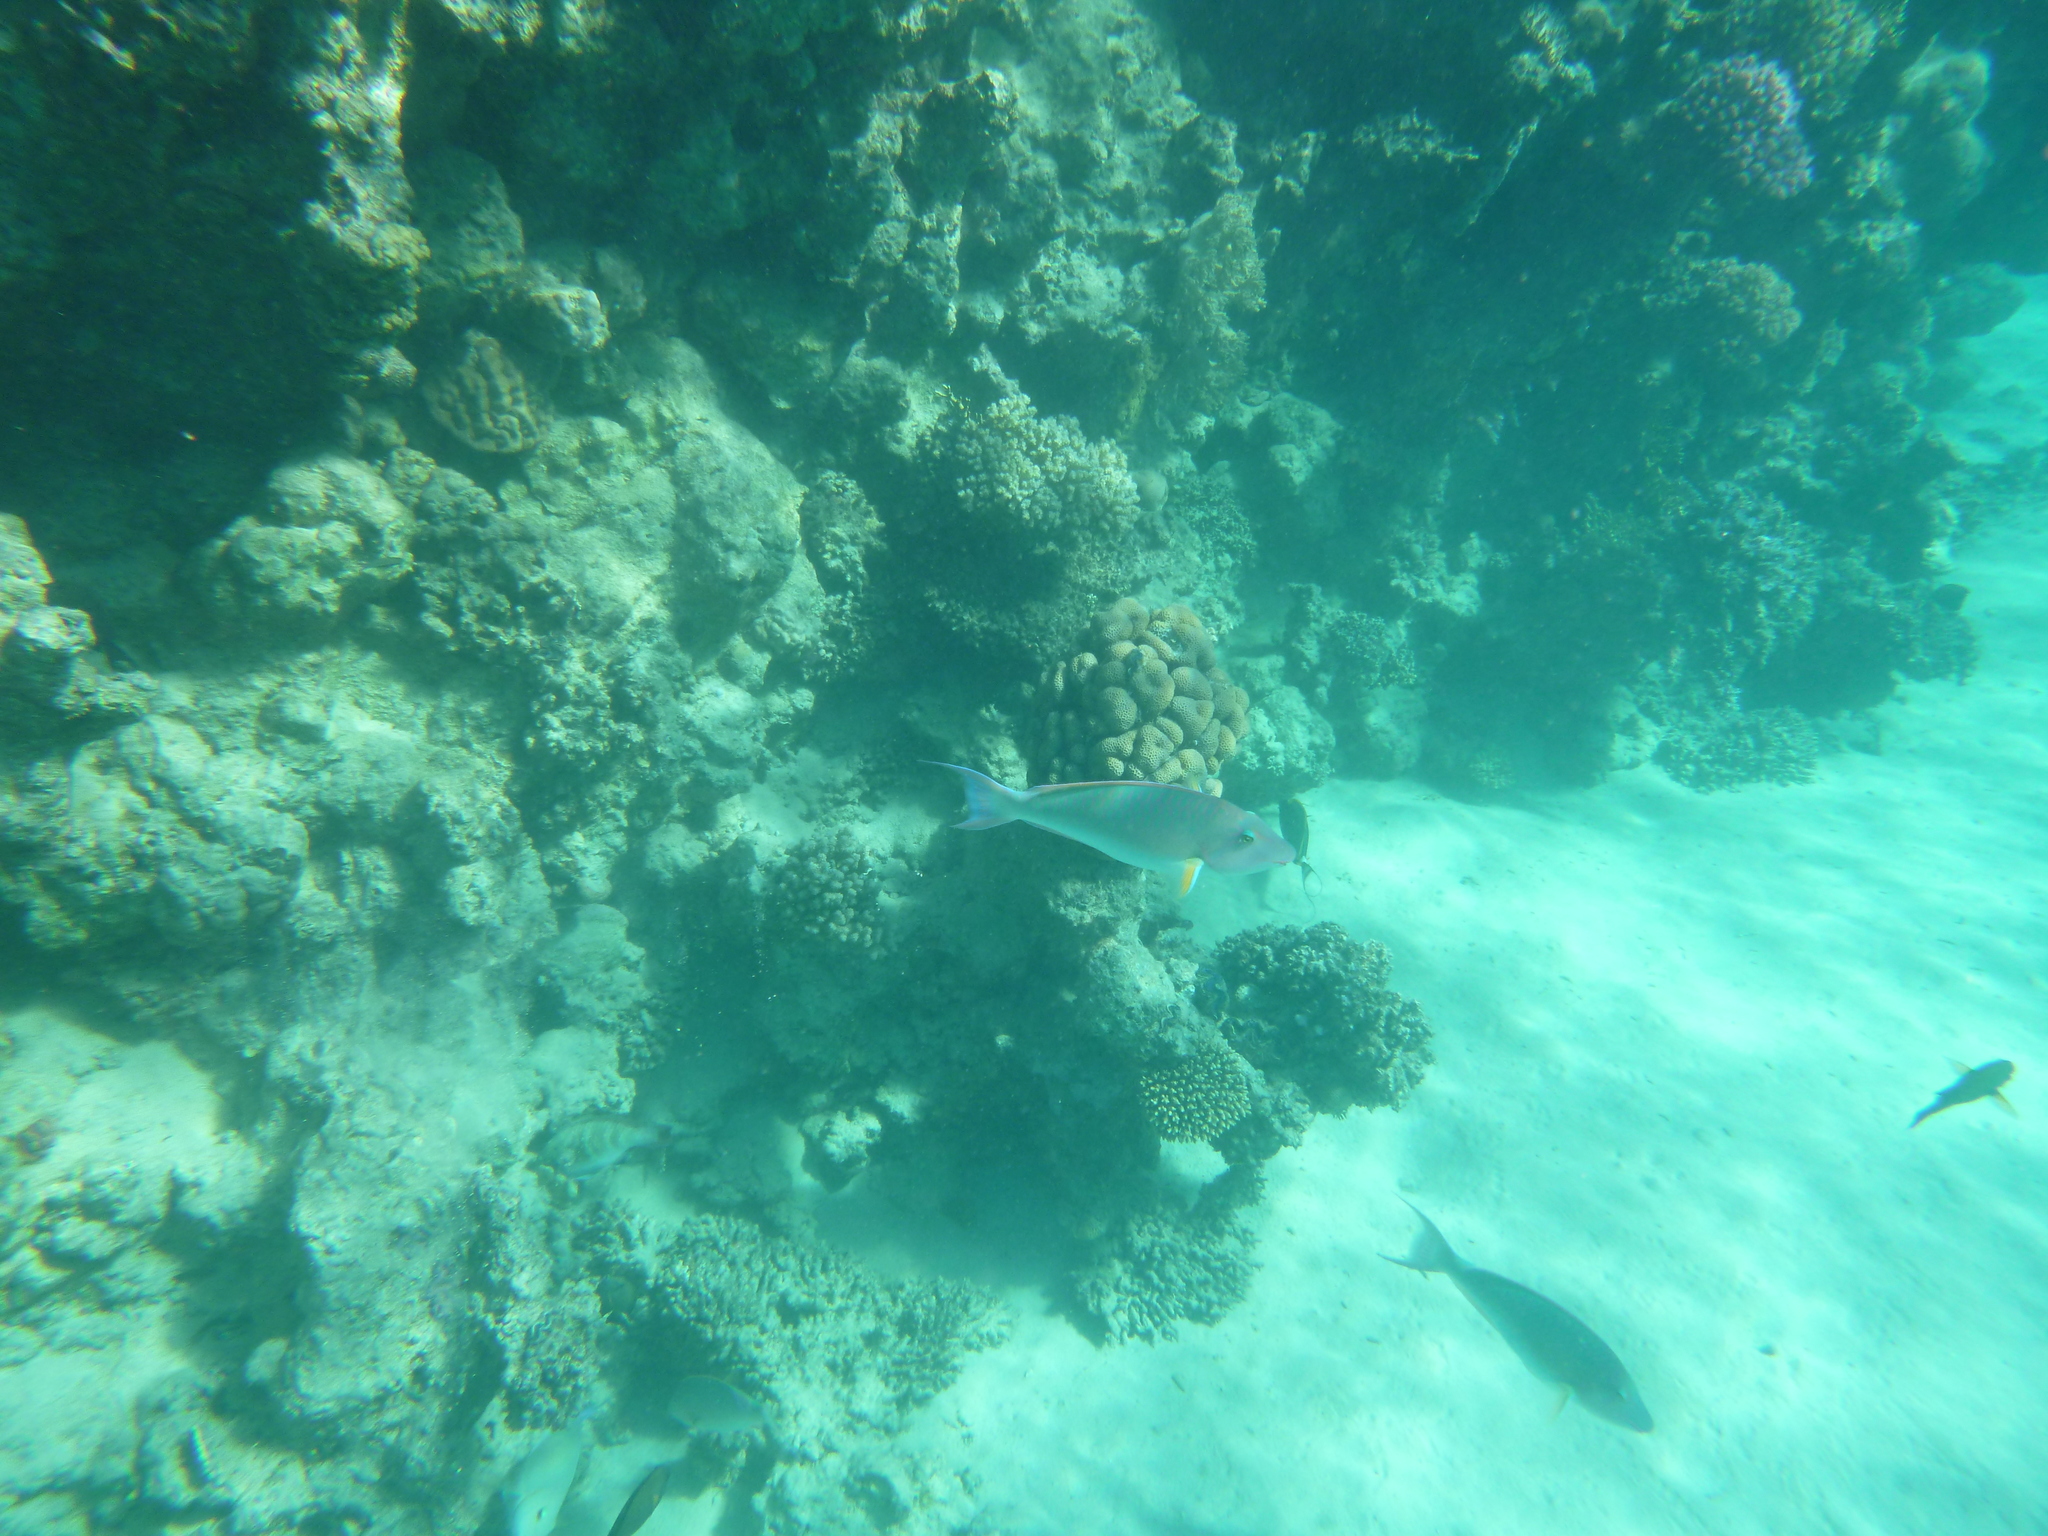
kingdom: Animalia
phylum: Chordata
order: Perciformes
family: Scaridae
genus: Hipposcarus
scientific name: Hipposcarus harid
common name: Candelamoa parrotfish
